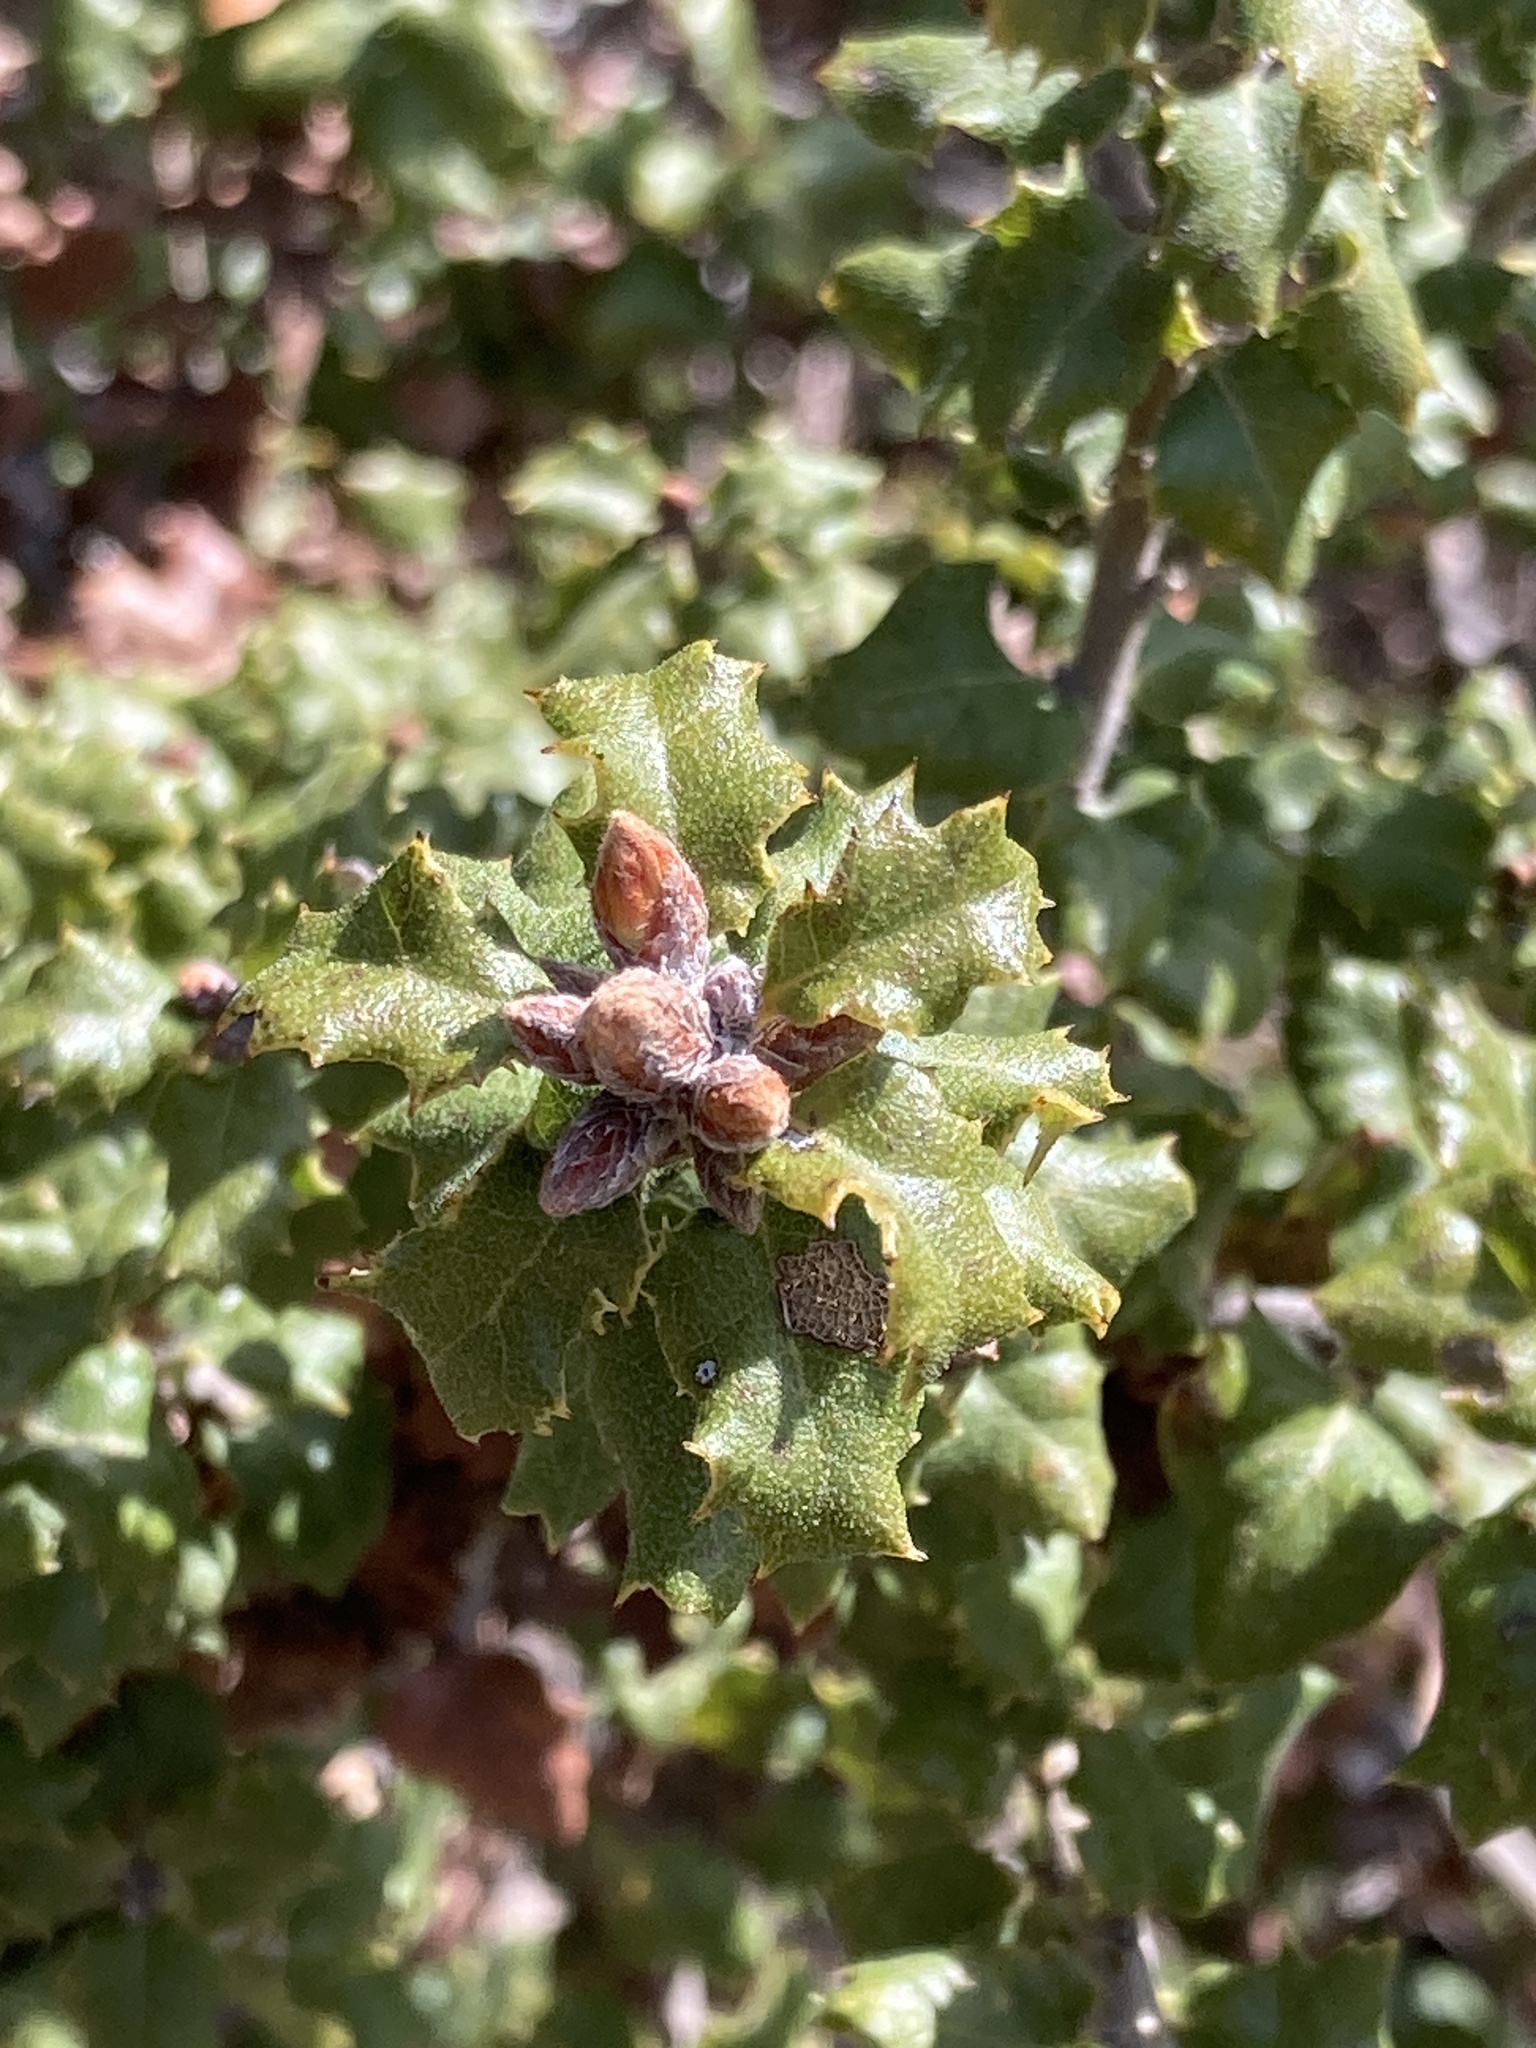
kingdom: Plantae
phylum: Tracheophyta
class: Magnoliopsida
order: Fagales
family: Fagaceae
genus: Quercus
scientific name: Quercus durata
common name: Leather oak
